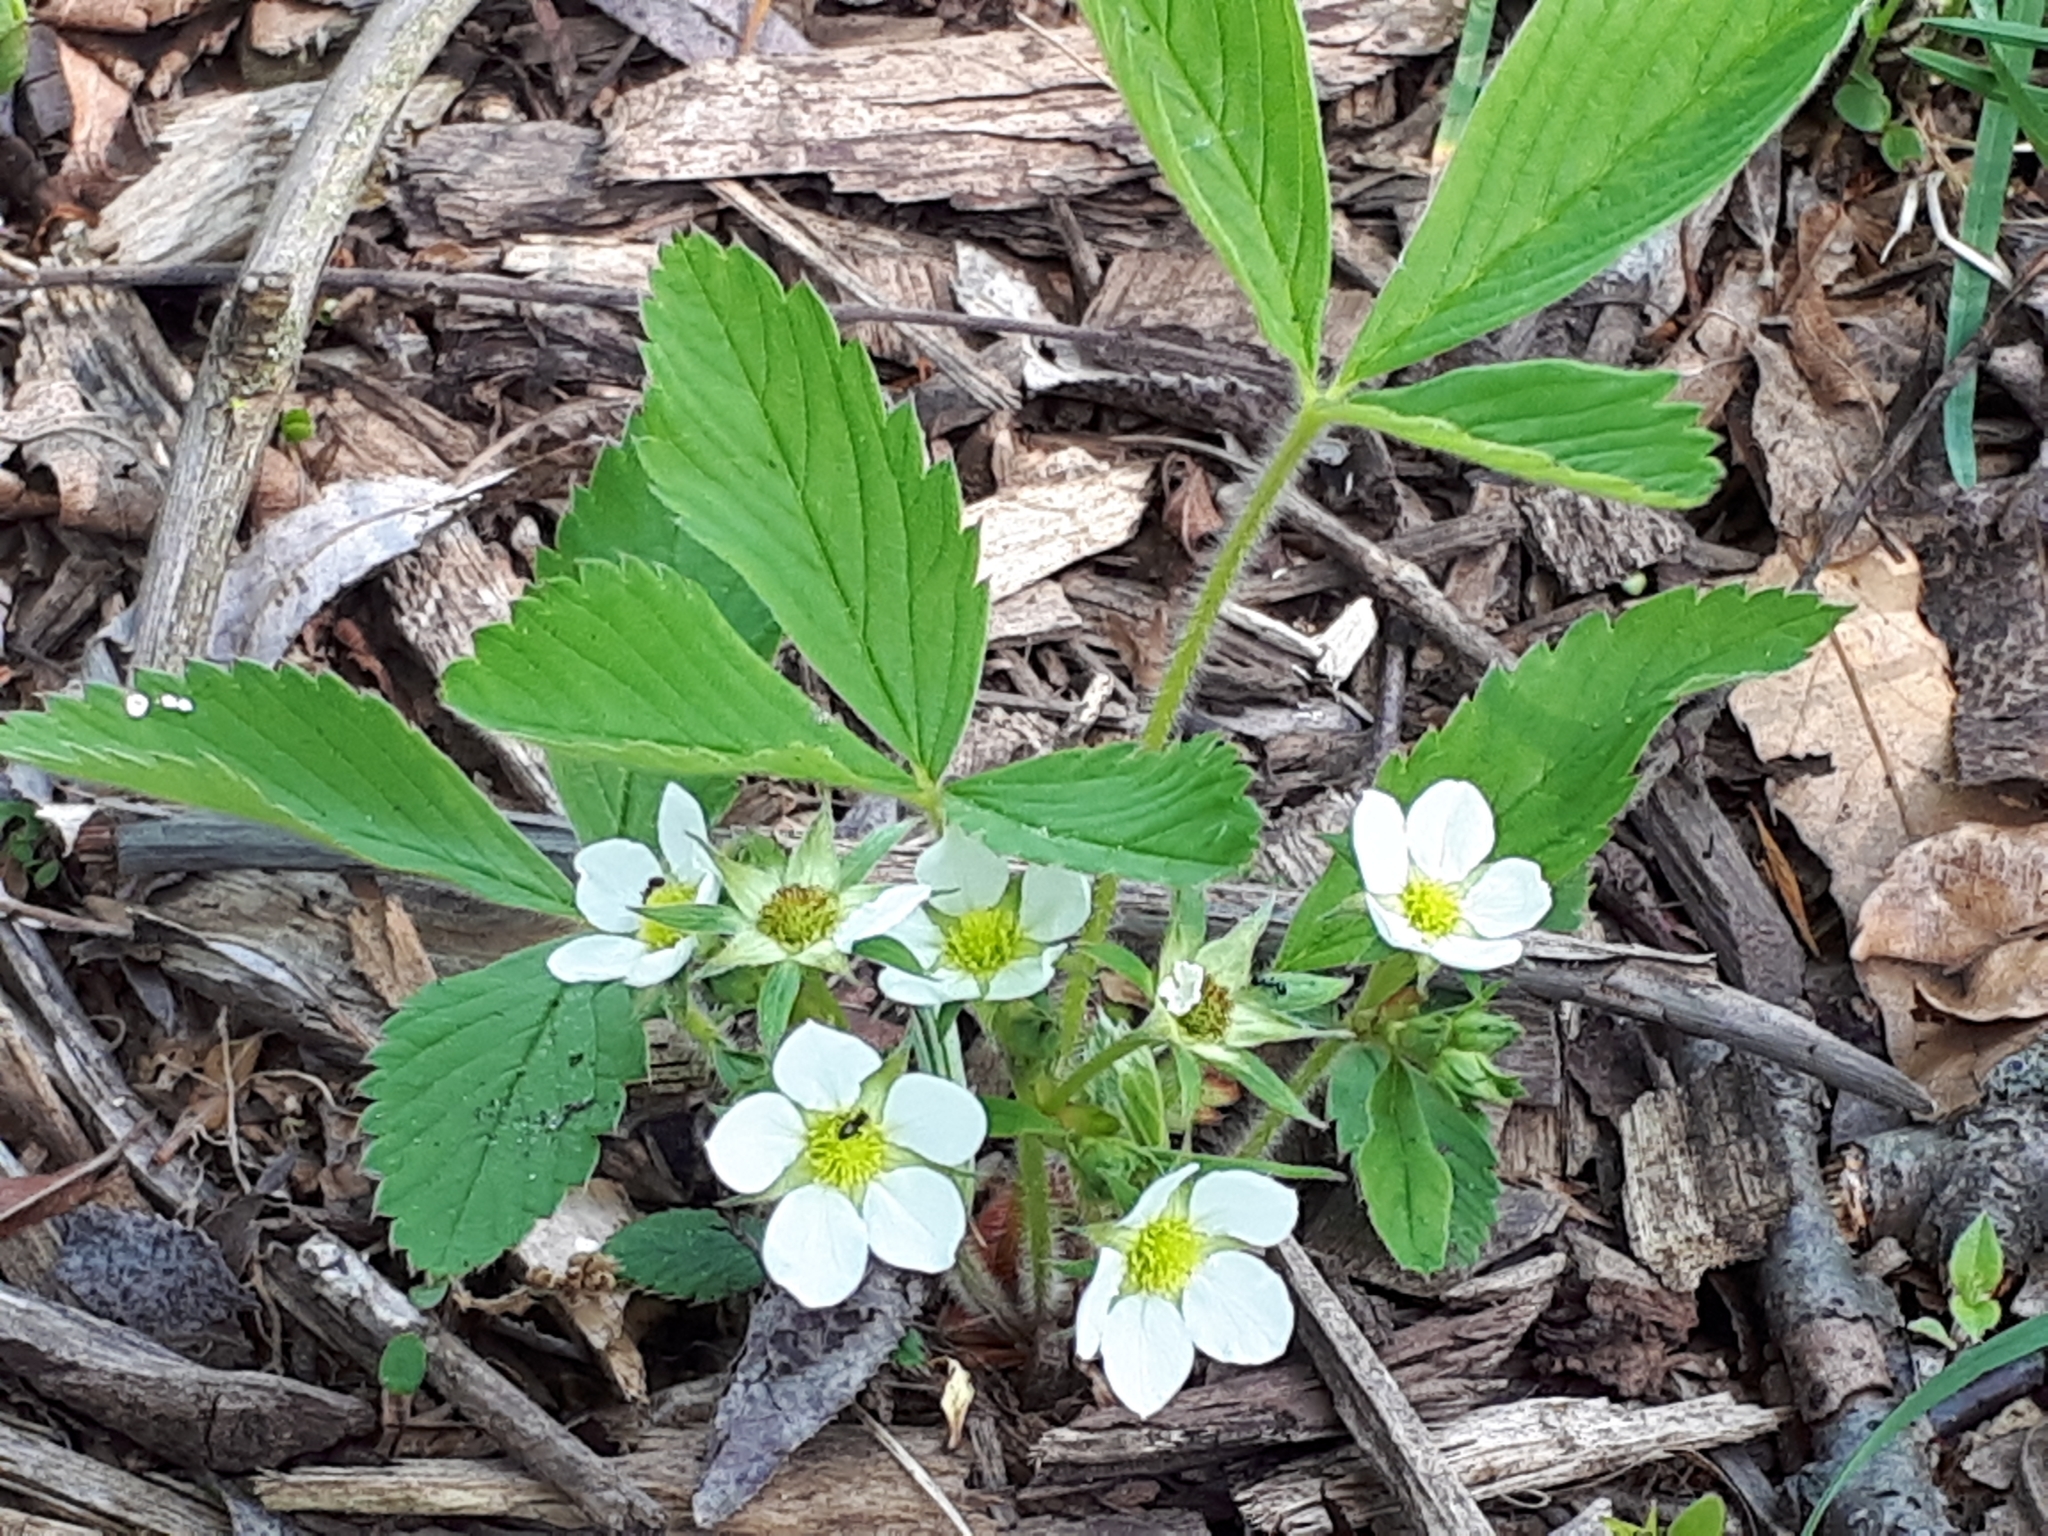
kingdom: Plantae
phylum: Tracheophyta
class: Magnoliopsida
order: Rosales
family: Rosaceae
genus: Fragaria
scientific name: Fragaria vesca
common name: Wild strawberry
